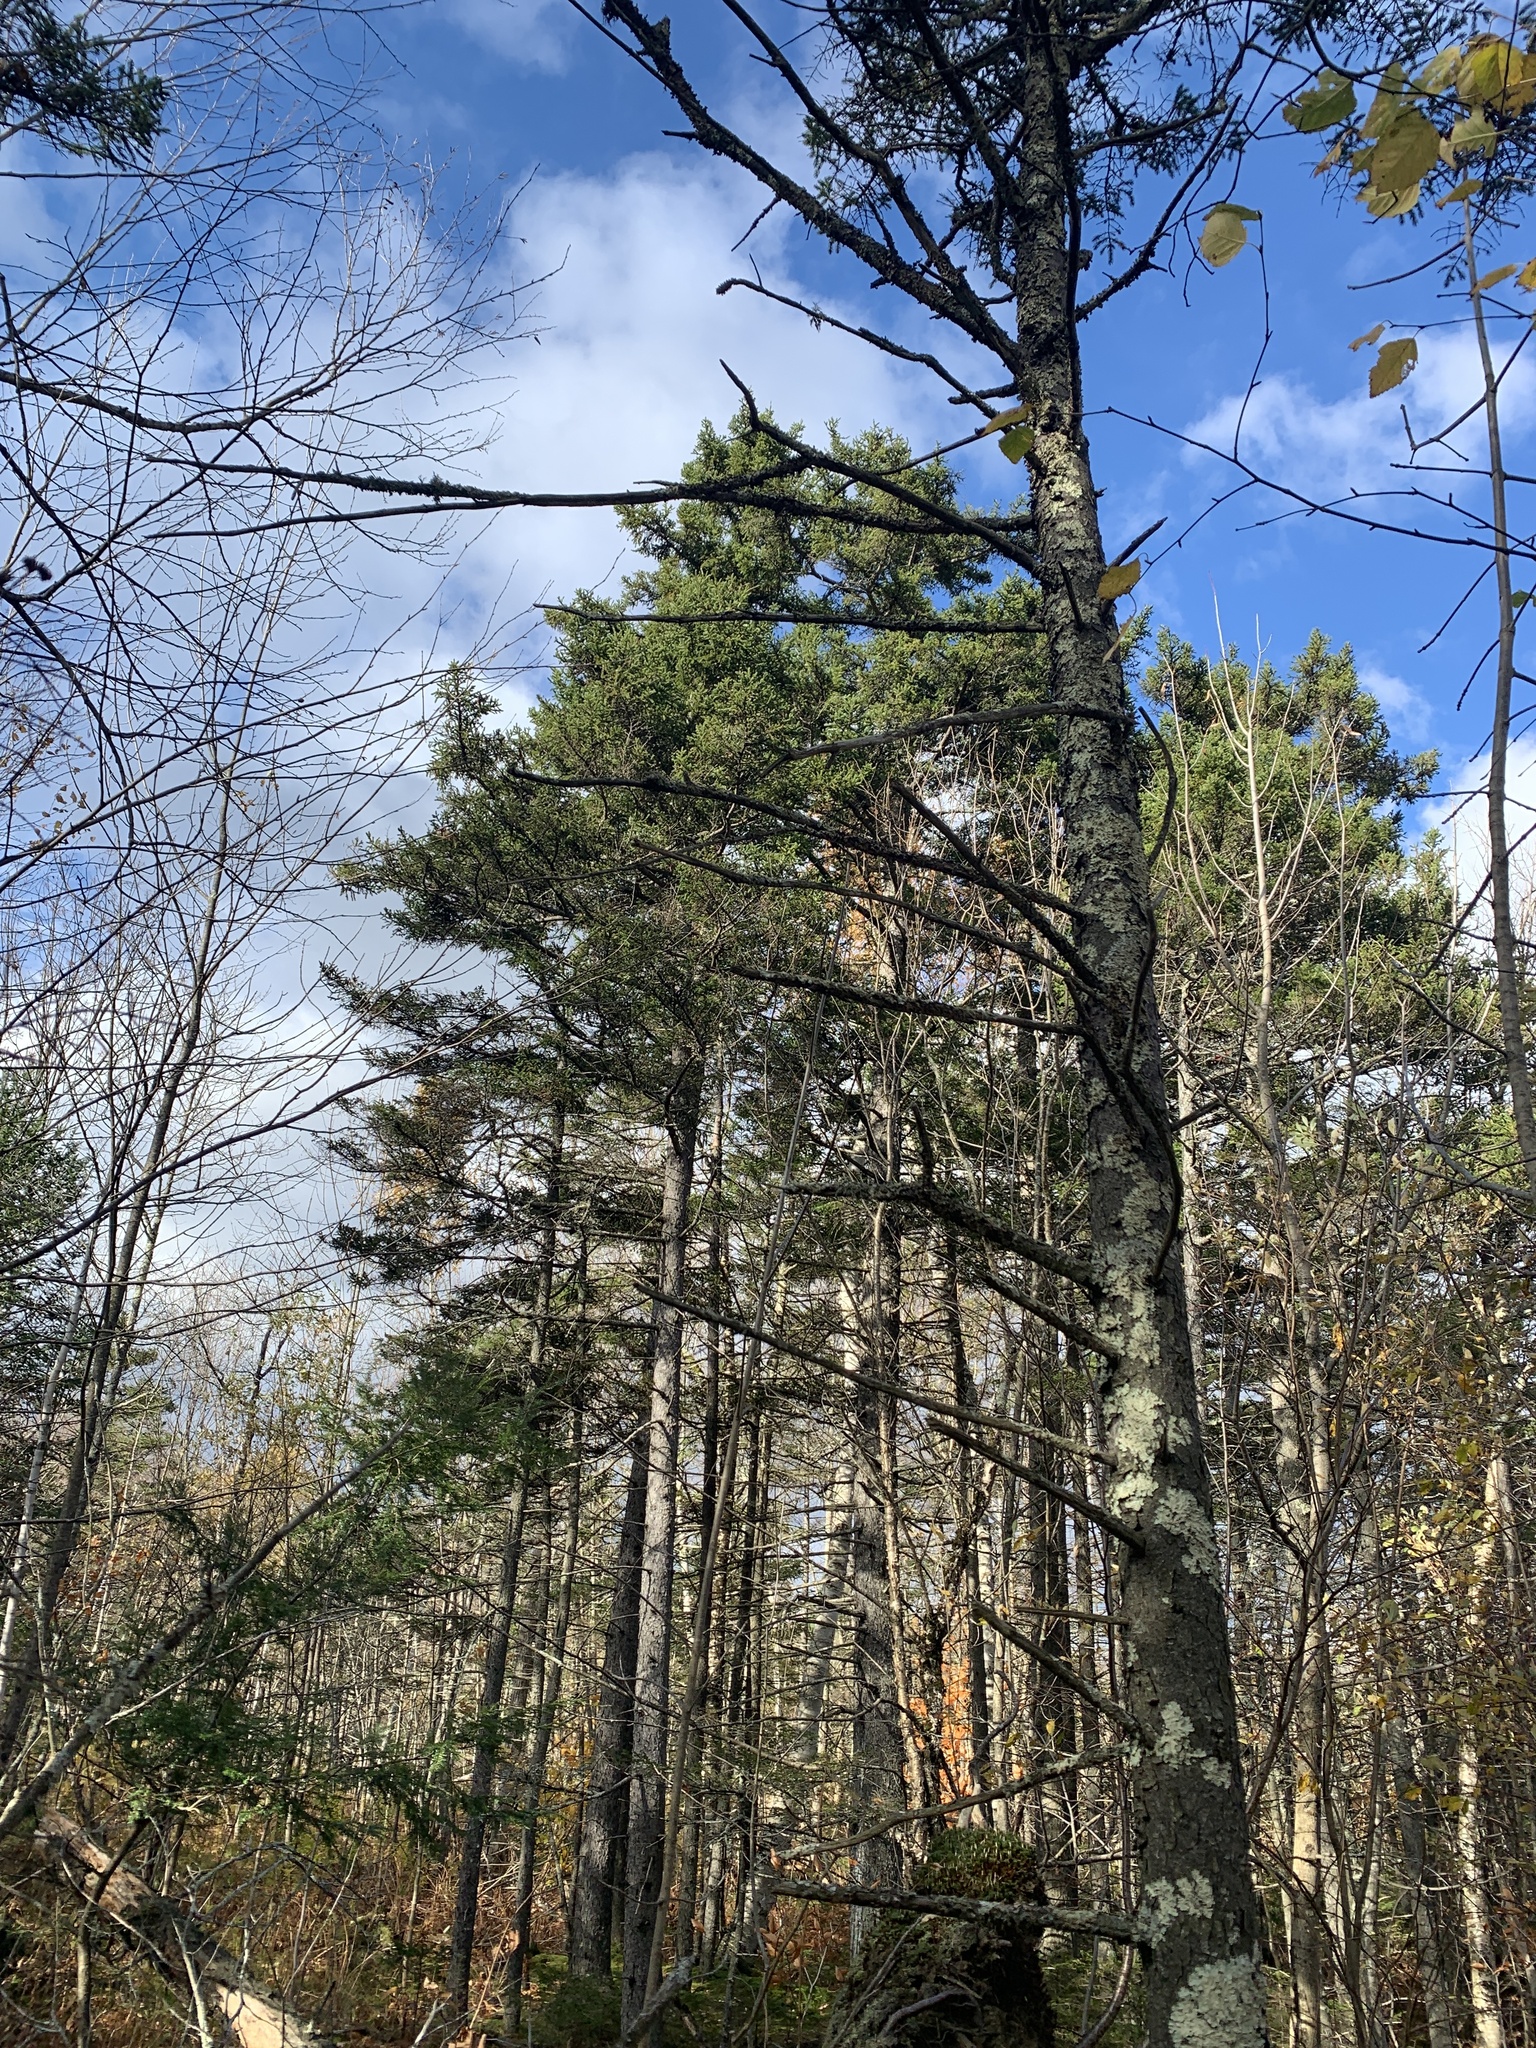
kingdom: Plantae
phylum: Tracheophyta
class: Pinopsida
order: Pinales
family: Pinaceae
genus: Picea
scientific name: Picea rubens
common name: Red spruce
